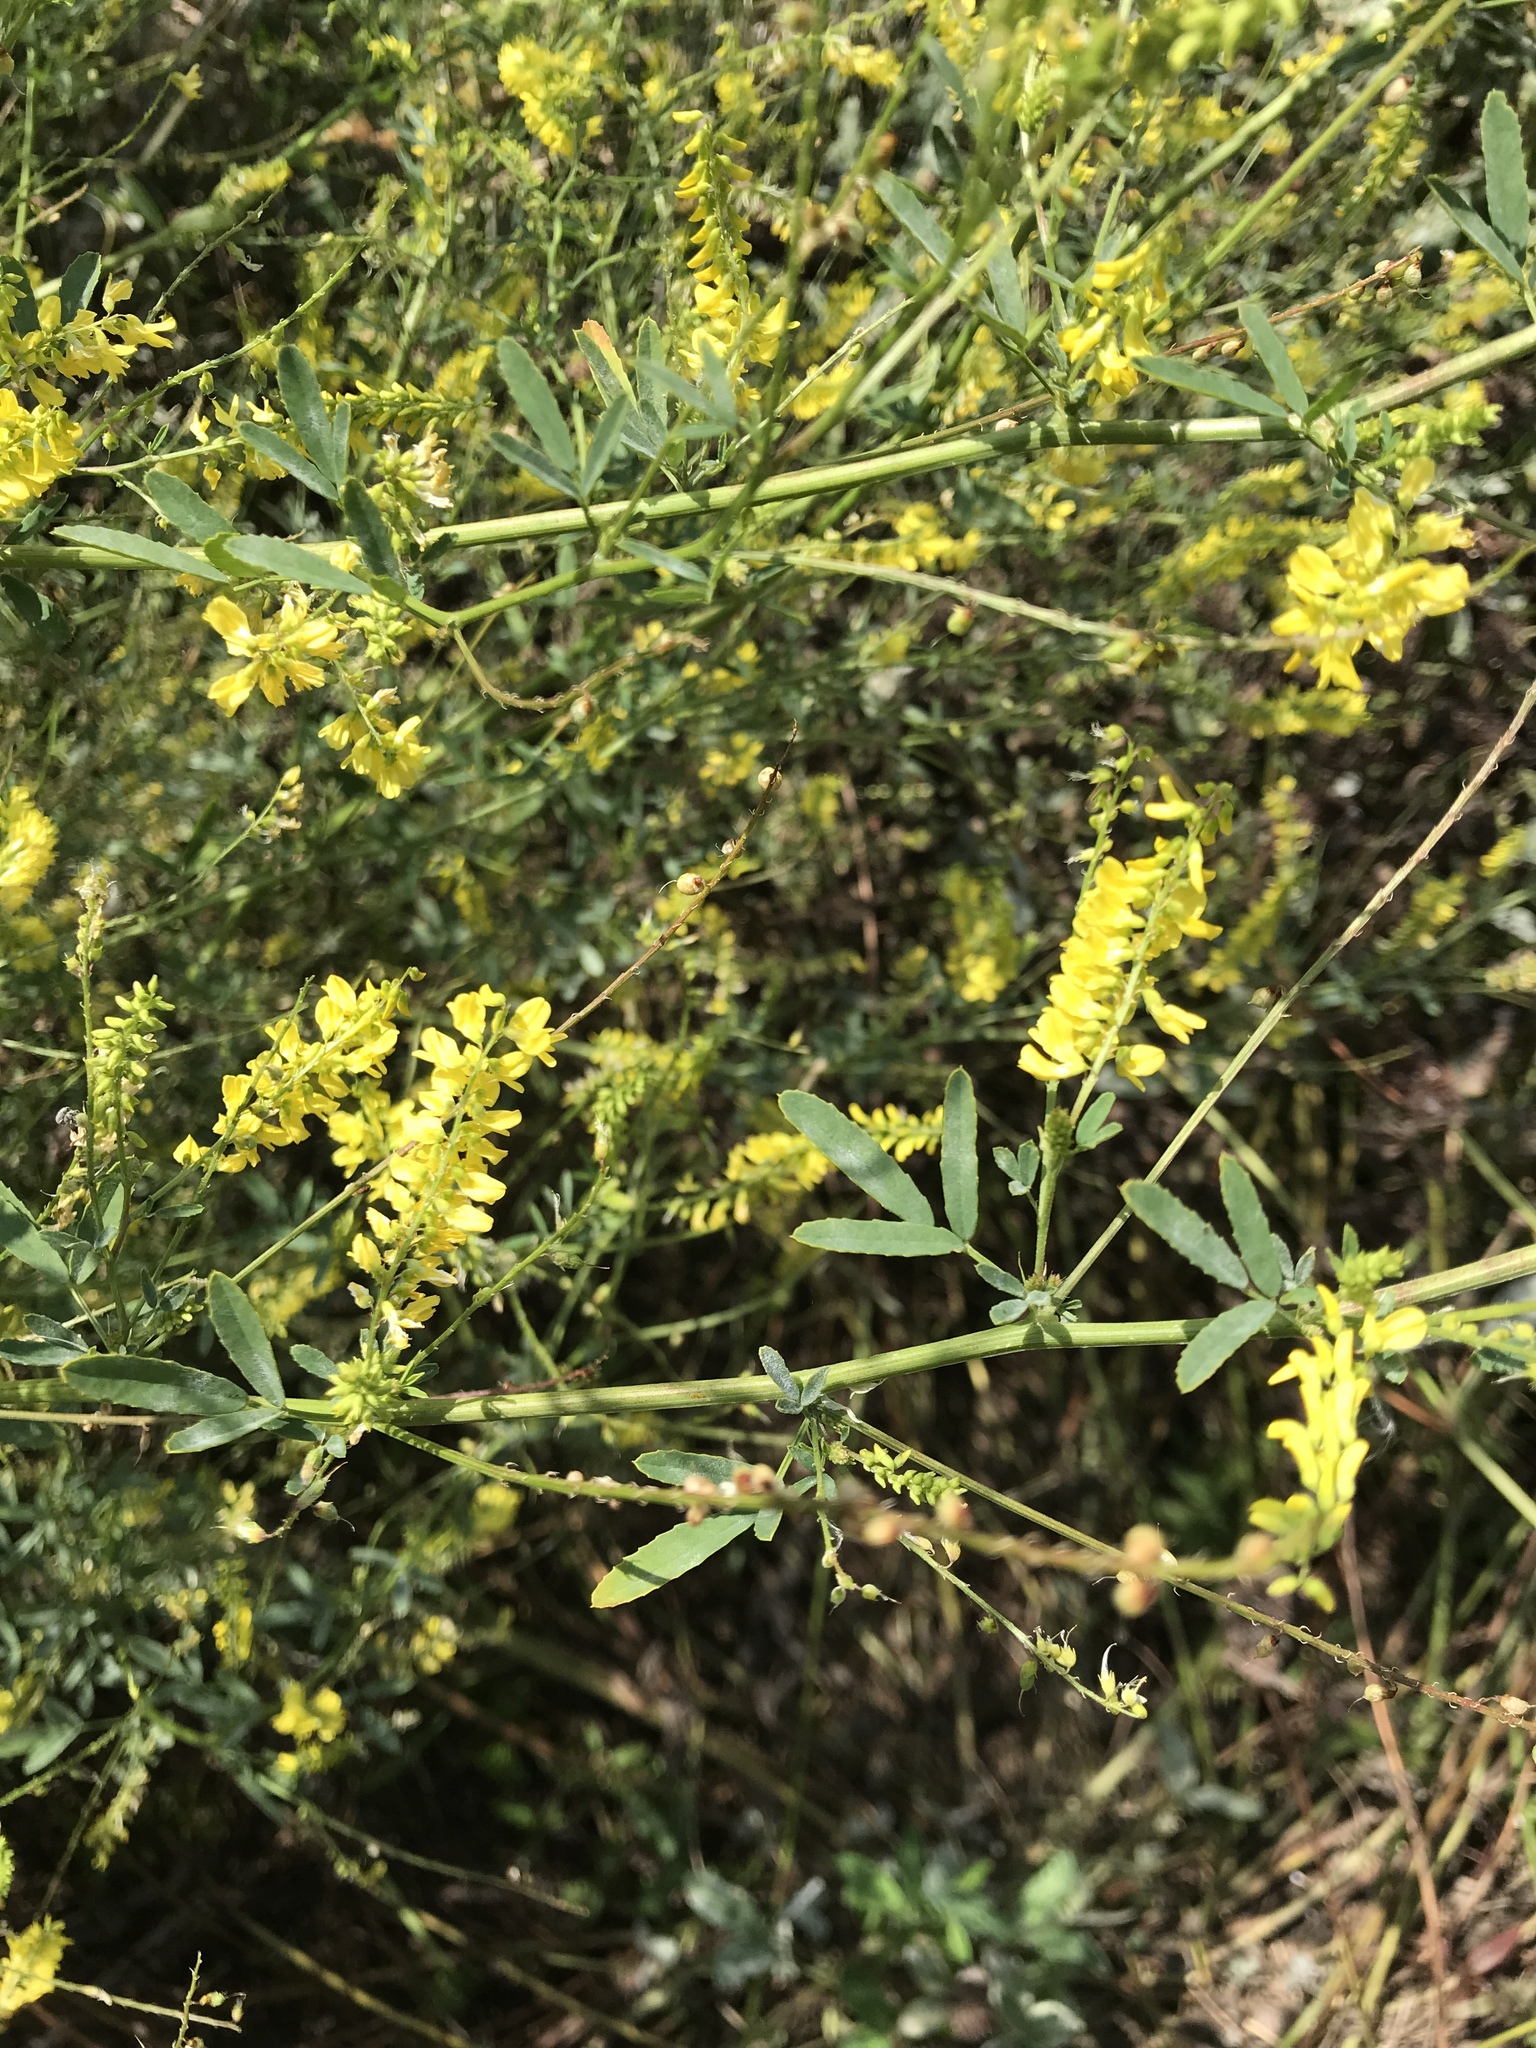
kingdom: Plantae
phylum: Tracheophyta
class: Magnoliopsida
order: Fabales
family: Fabaceae
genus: Melilotus
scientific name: Melilotus officinalis
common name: Sweetclover
